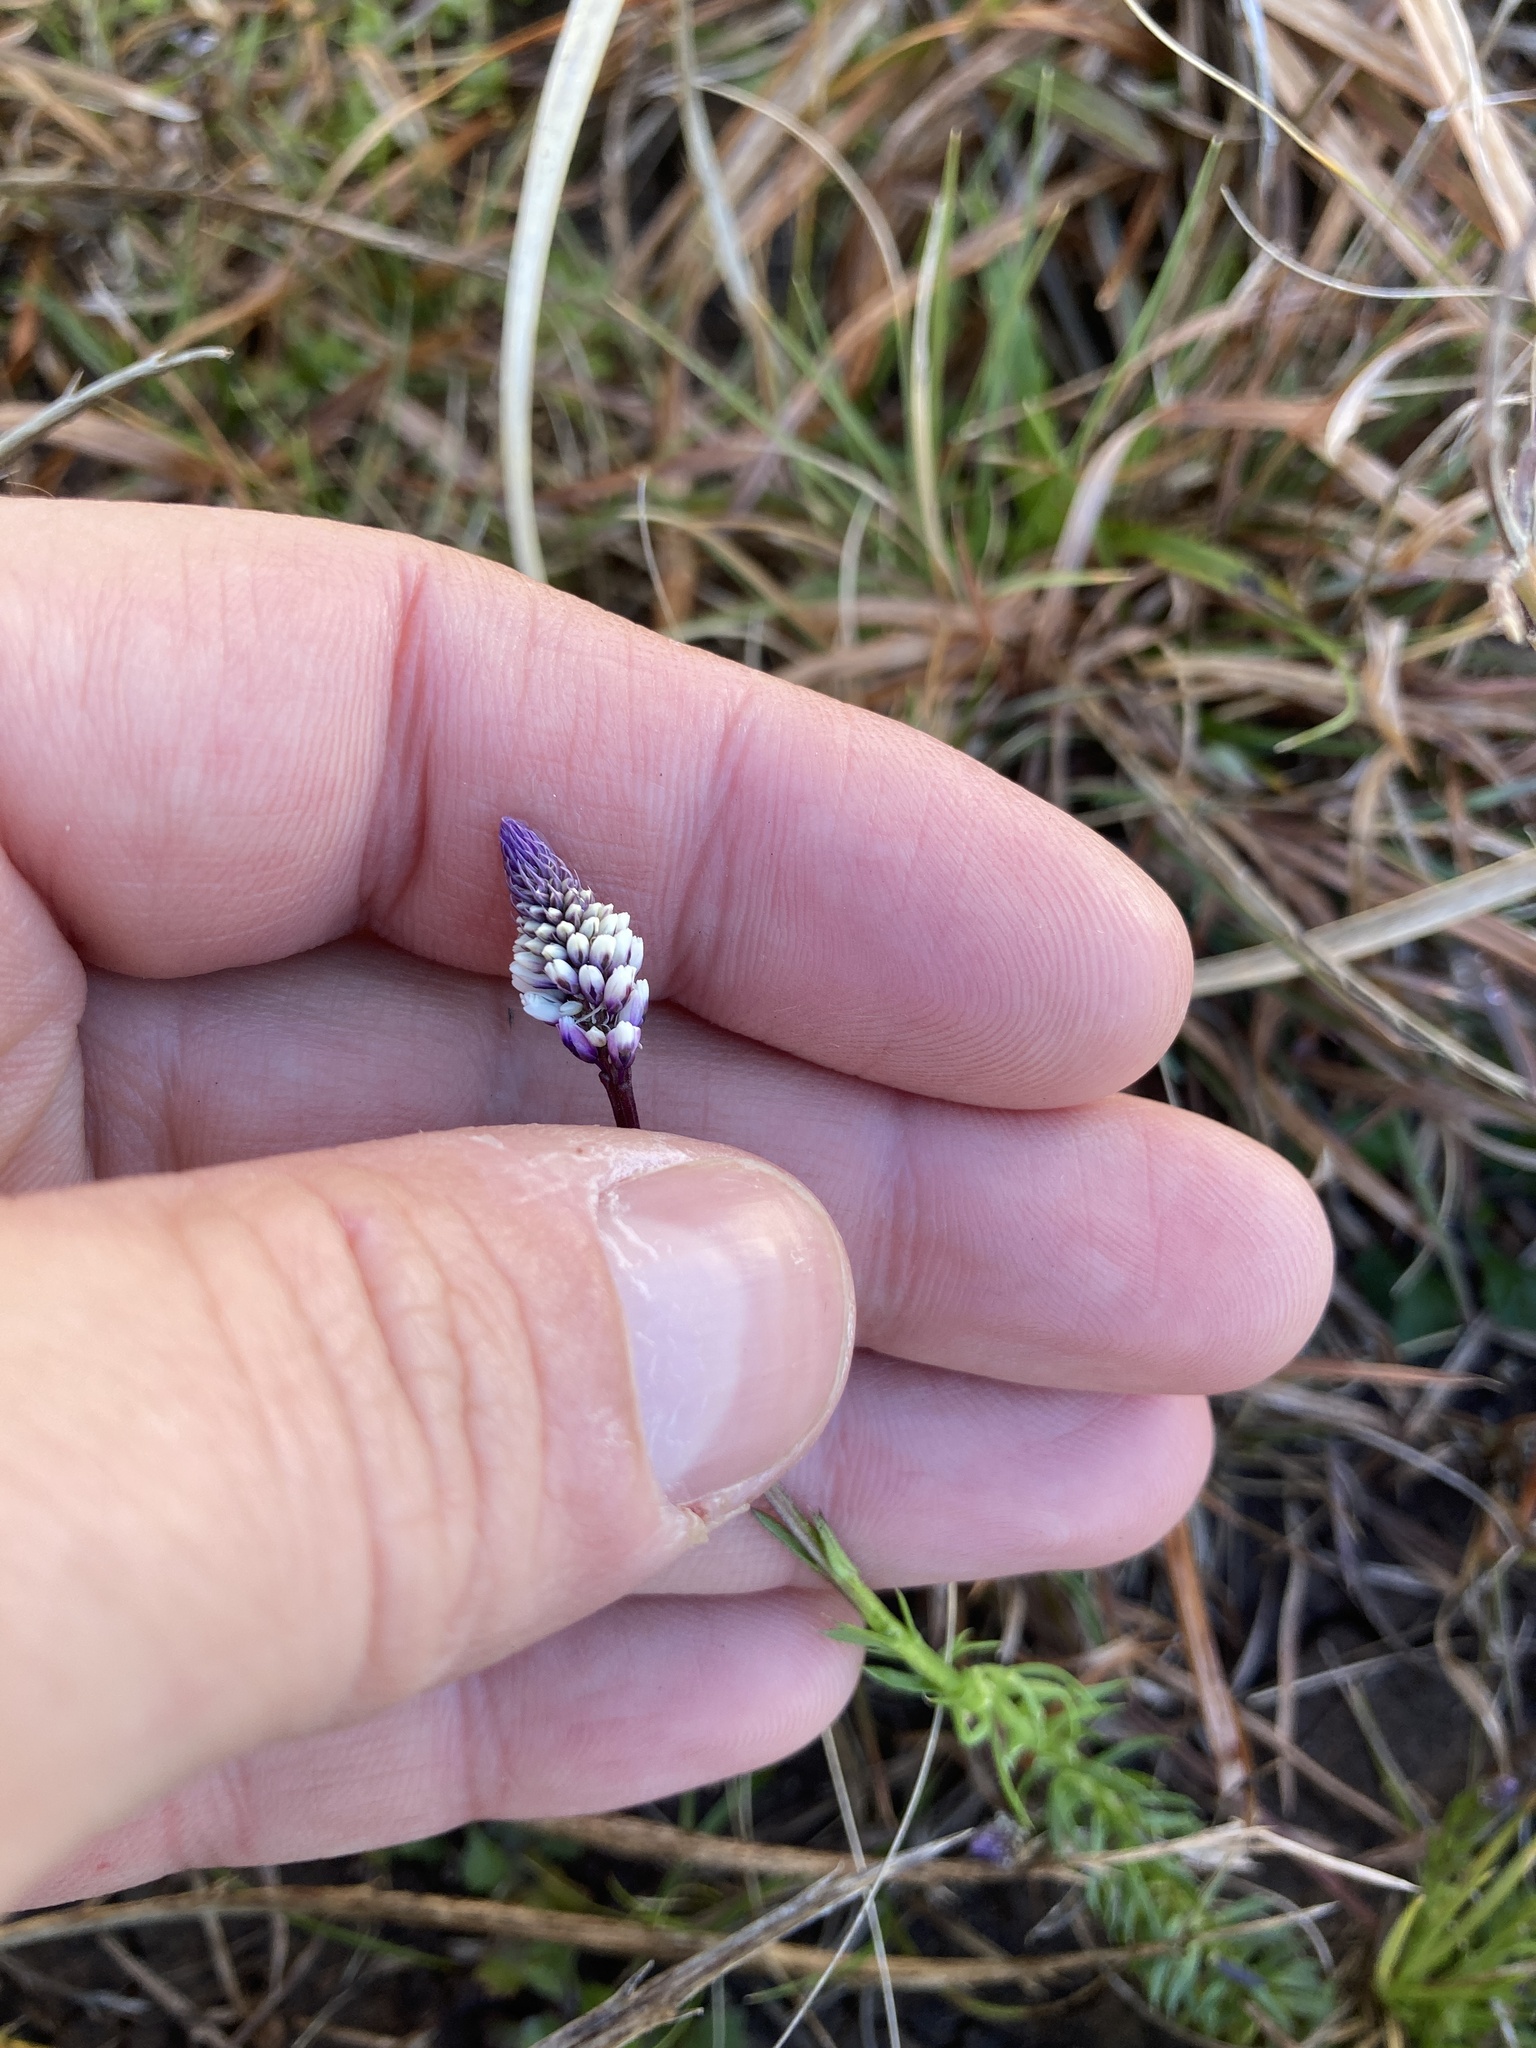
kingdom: Plantae
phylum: Tracheophyta
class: Magnoliopsida
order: Fabales
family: Polygalaceae
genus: Polygala
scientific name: Polygala linoides
